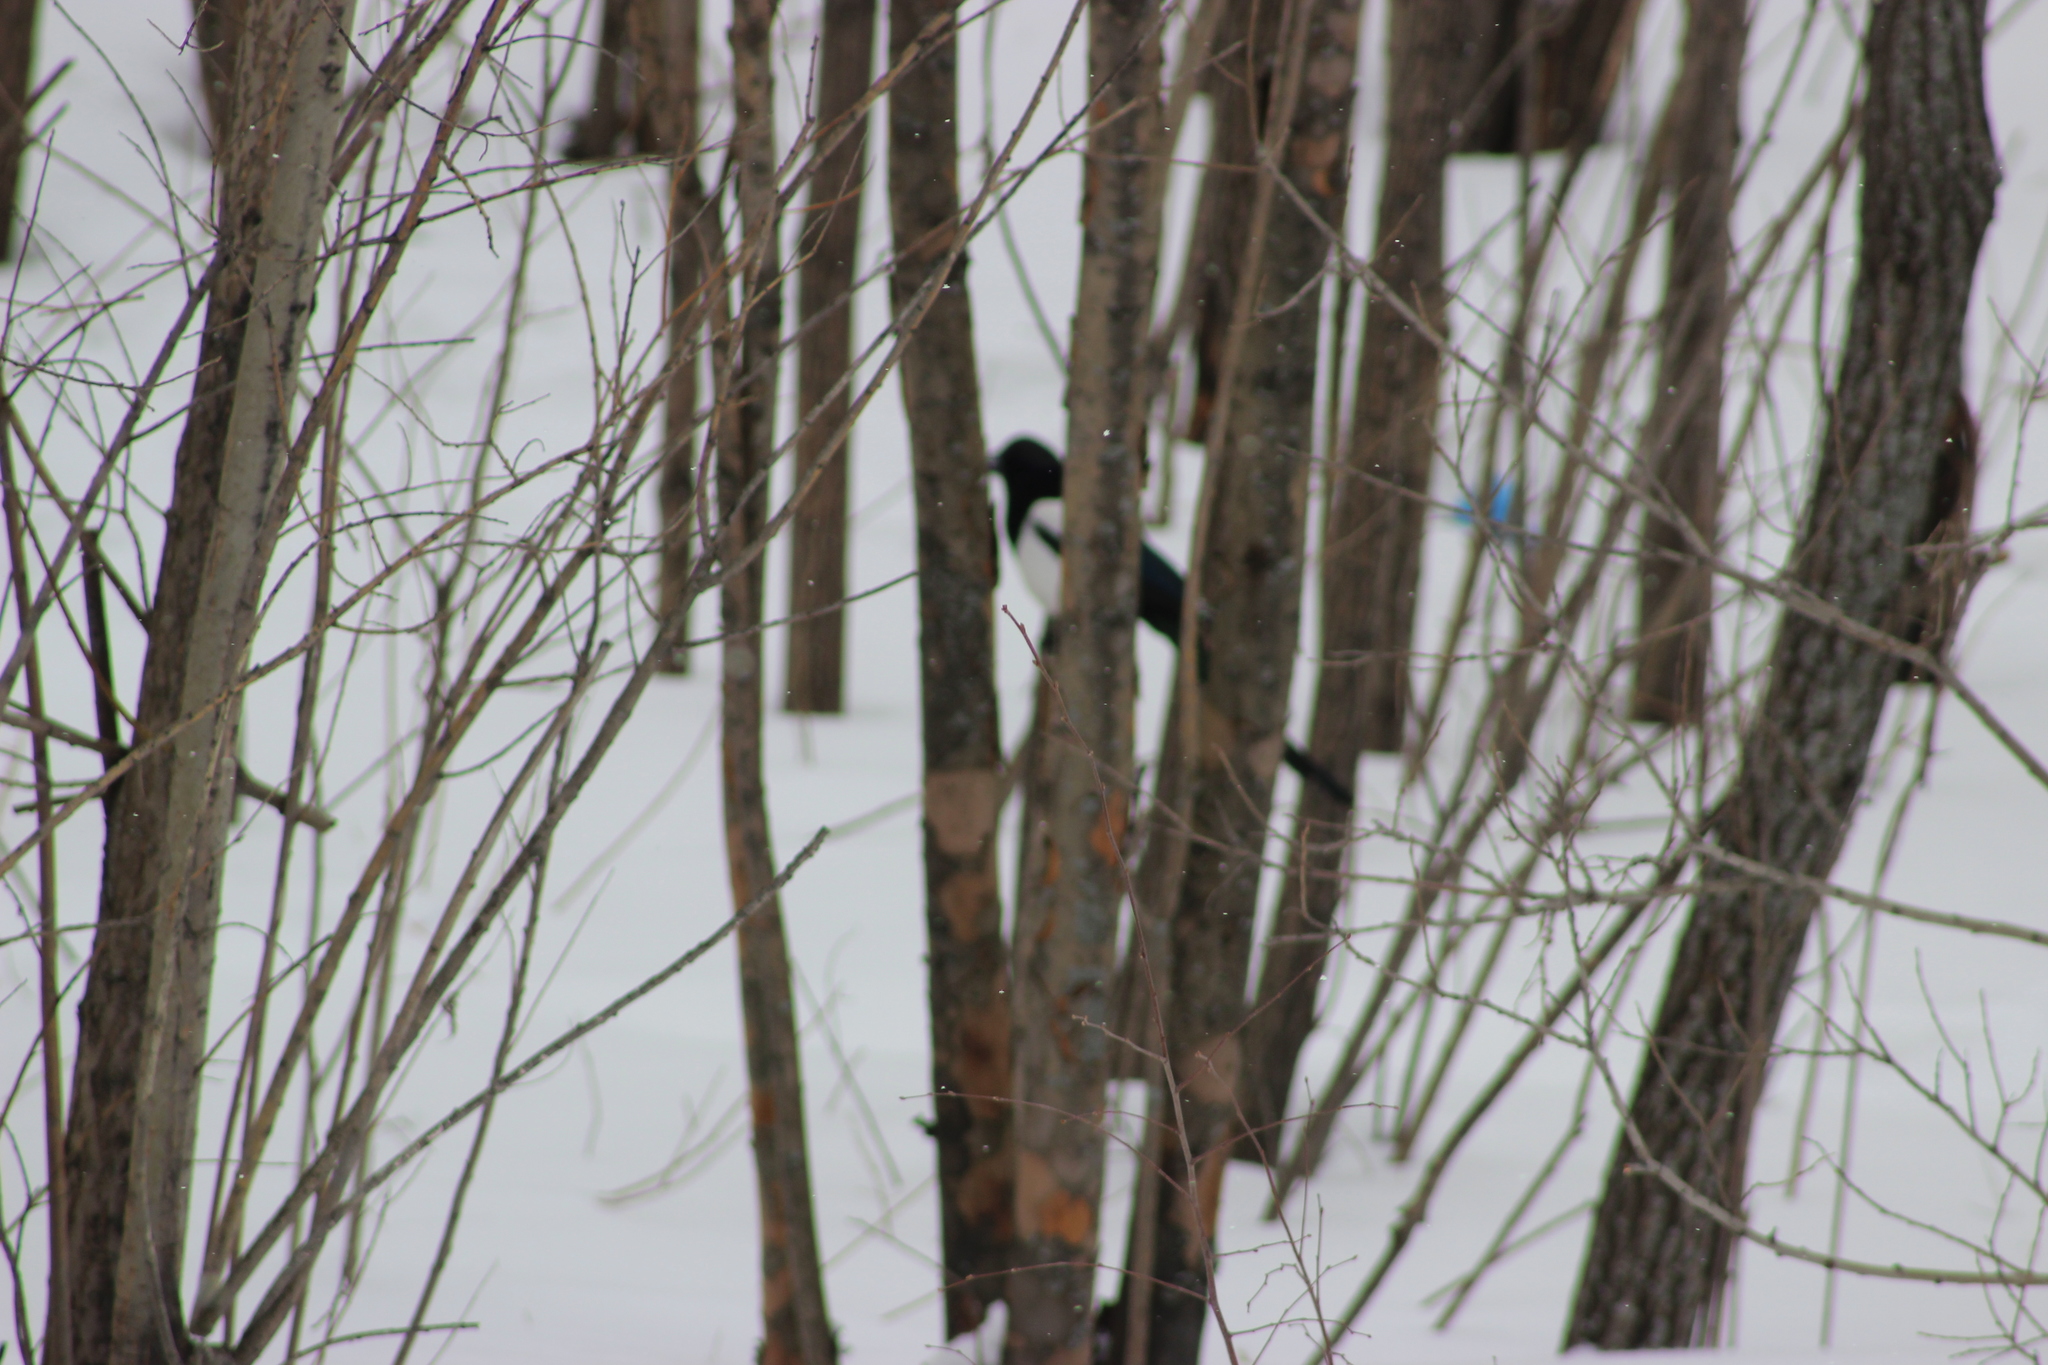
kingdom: Animalia
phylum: Chordata
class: Aves
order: Passeriformes
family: Corvidae
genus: Pica
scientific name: Pica pica
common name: Eurasian magpie
